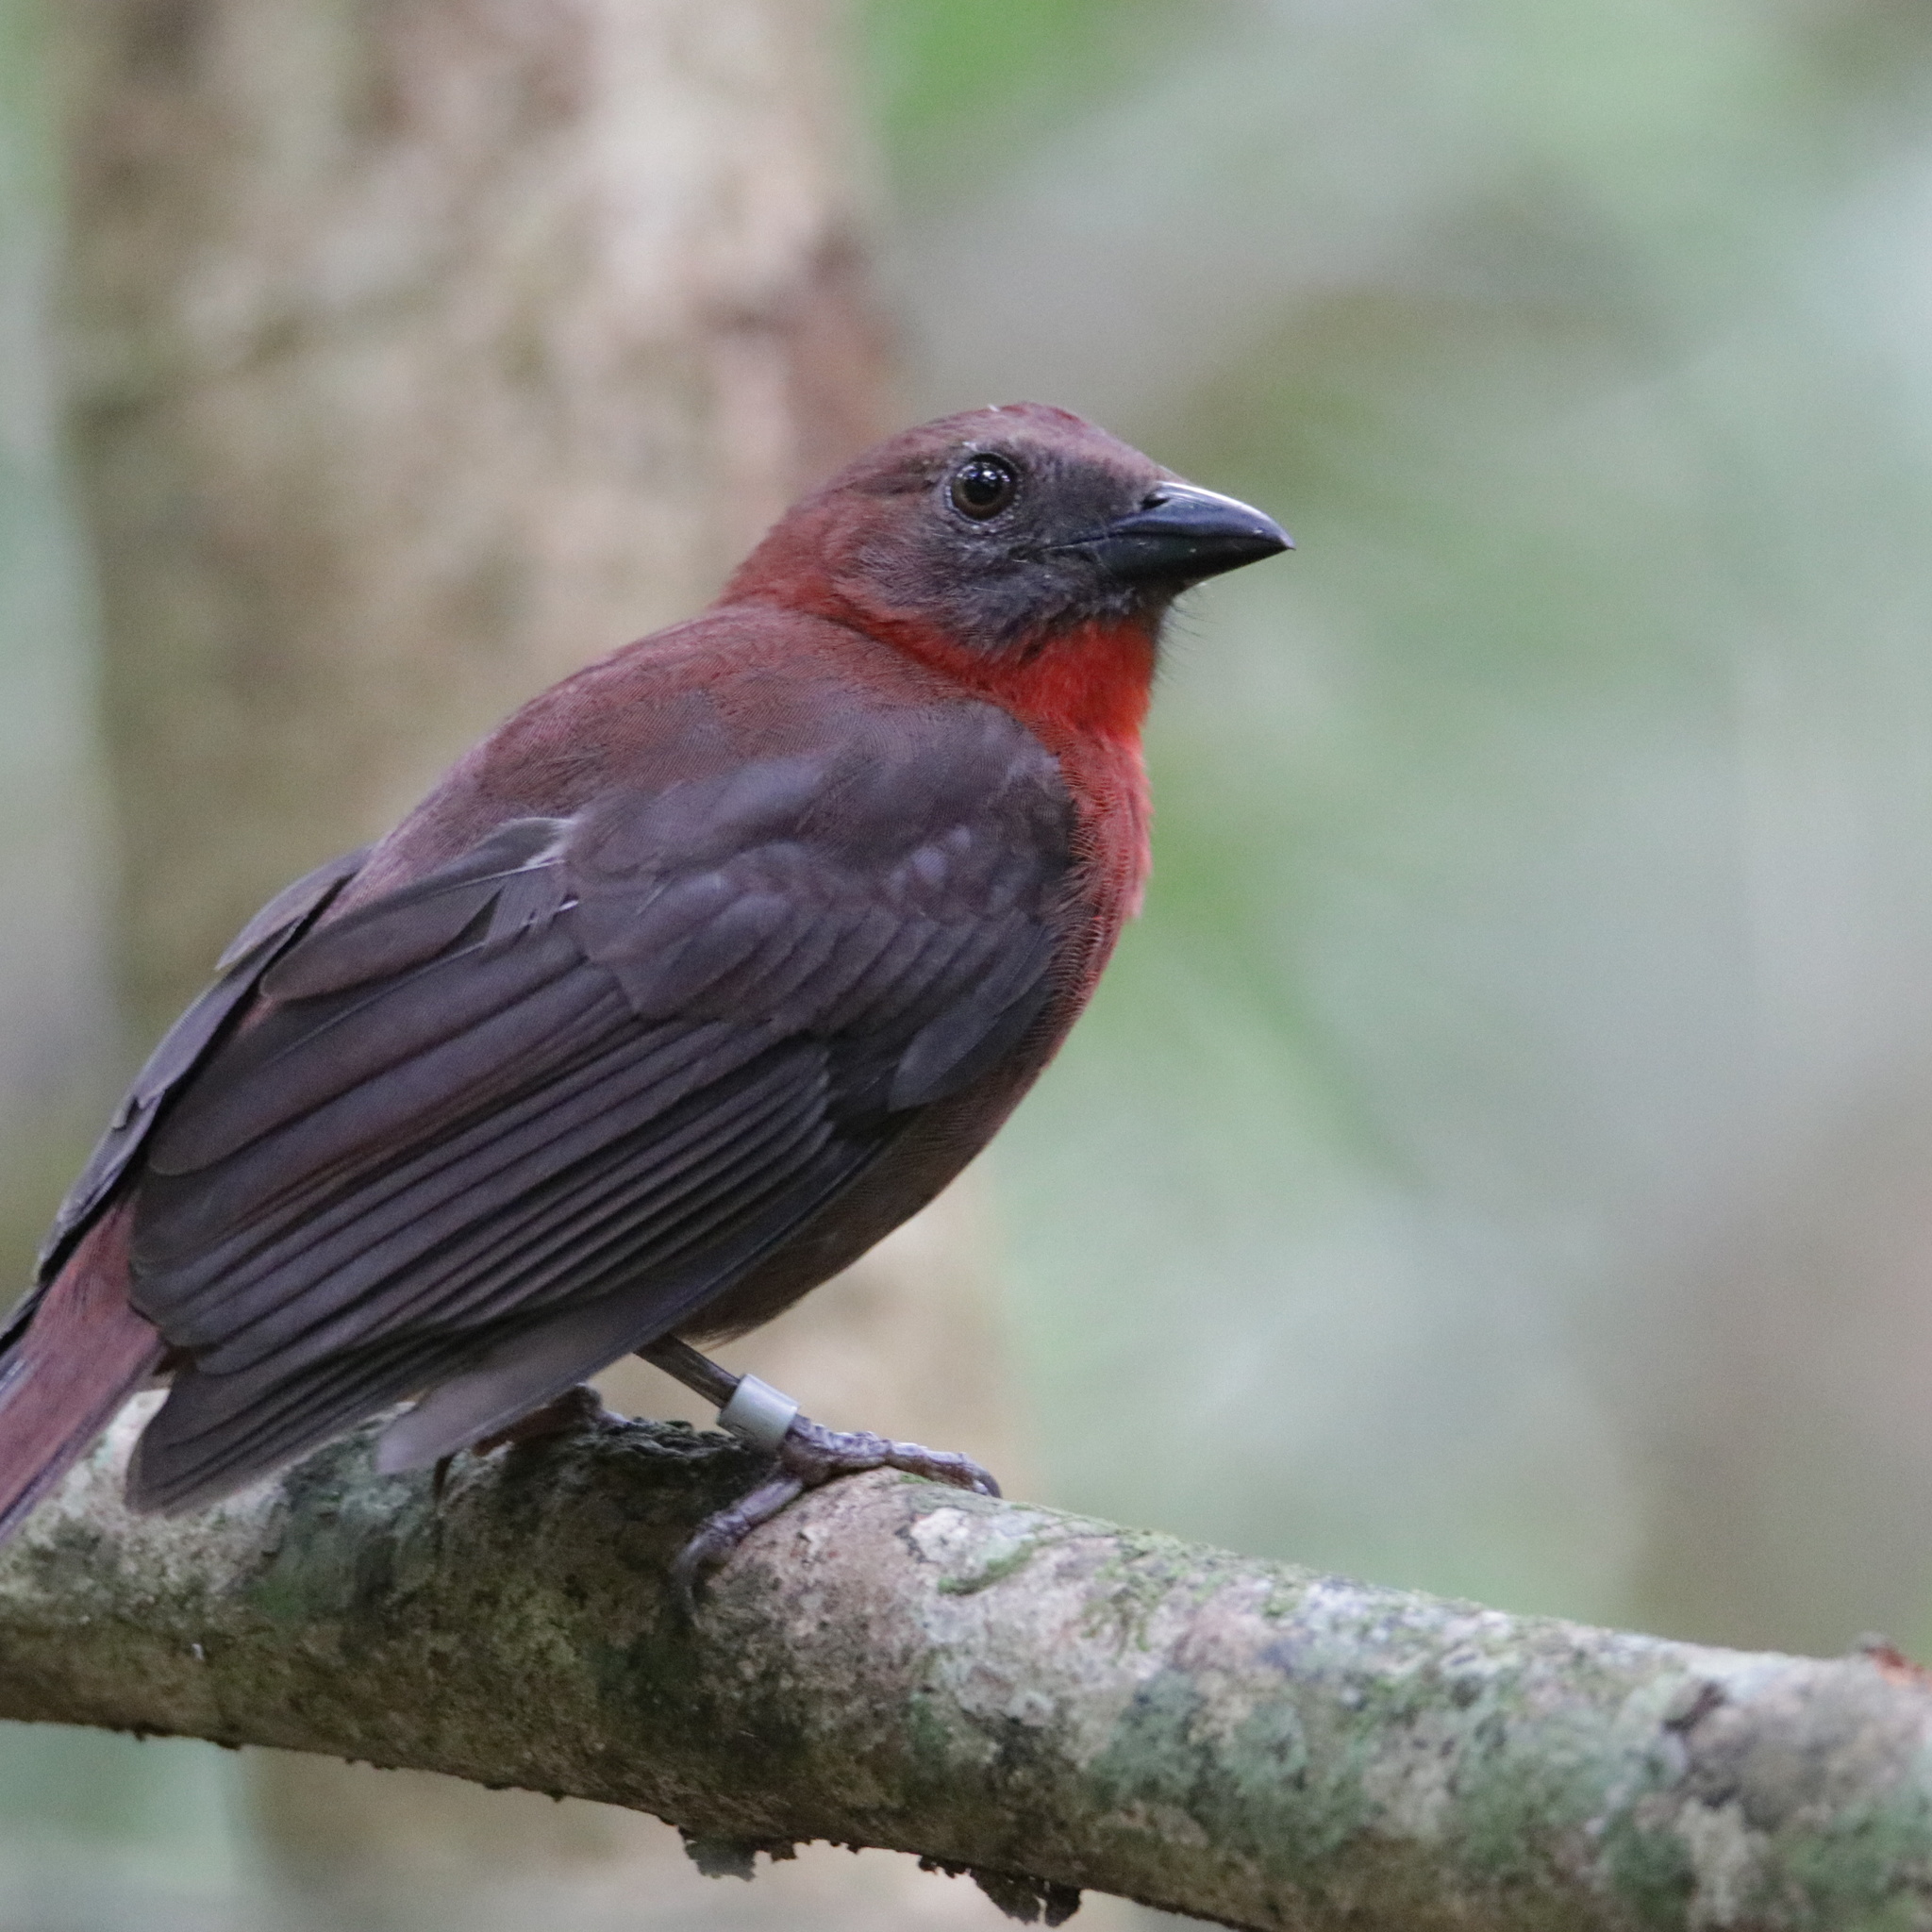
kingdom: Animalia
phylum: Chordata
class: Aves
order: Passeriformes
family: Cardinalidae
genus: Habia
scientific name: Habia fuscicauda
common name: Red-throated ant-tanager
